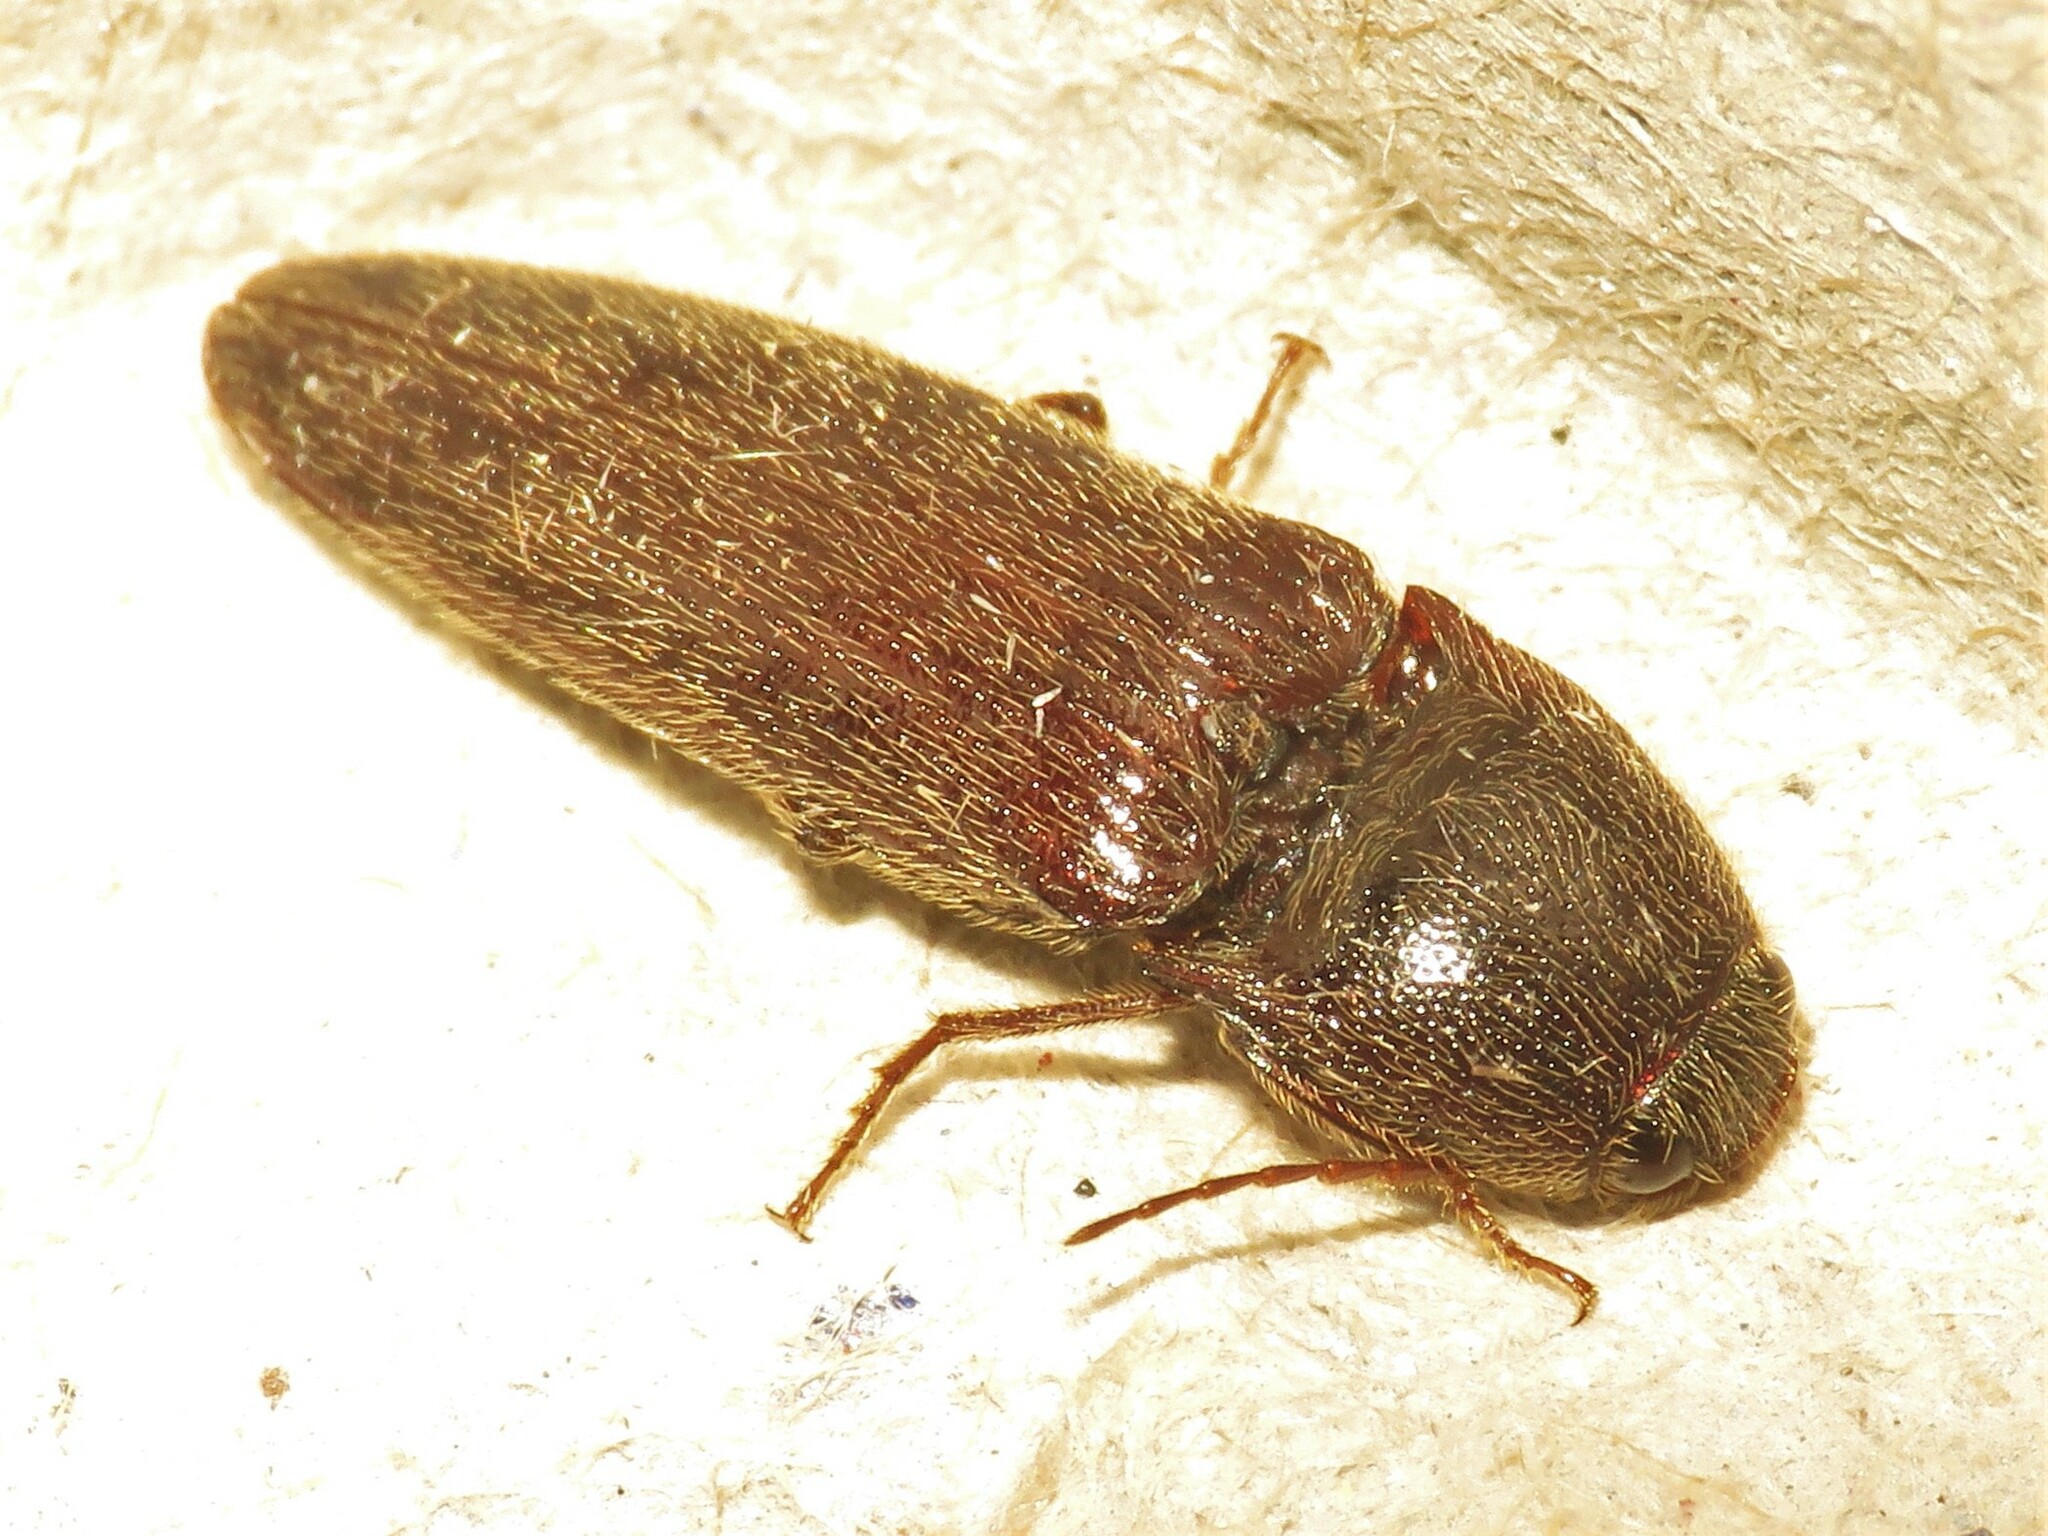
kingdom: Animalia
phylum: Arthropoda
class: Insecta
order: Coleoptera
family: Elateridae
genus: Melanotus
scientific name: Melanotus castanipes
